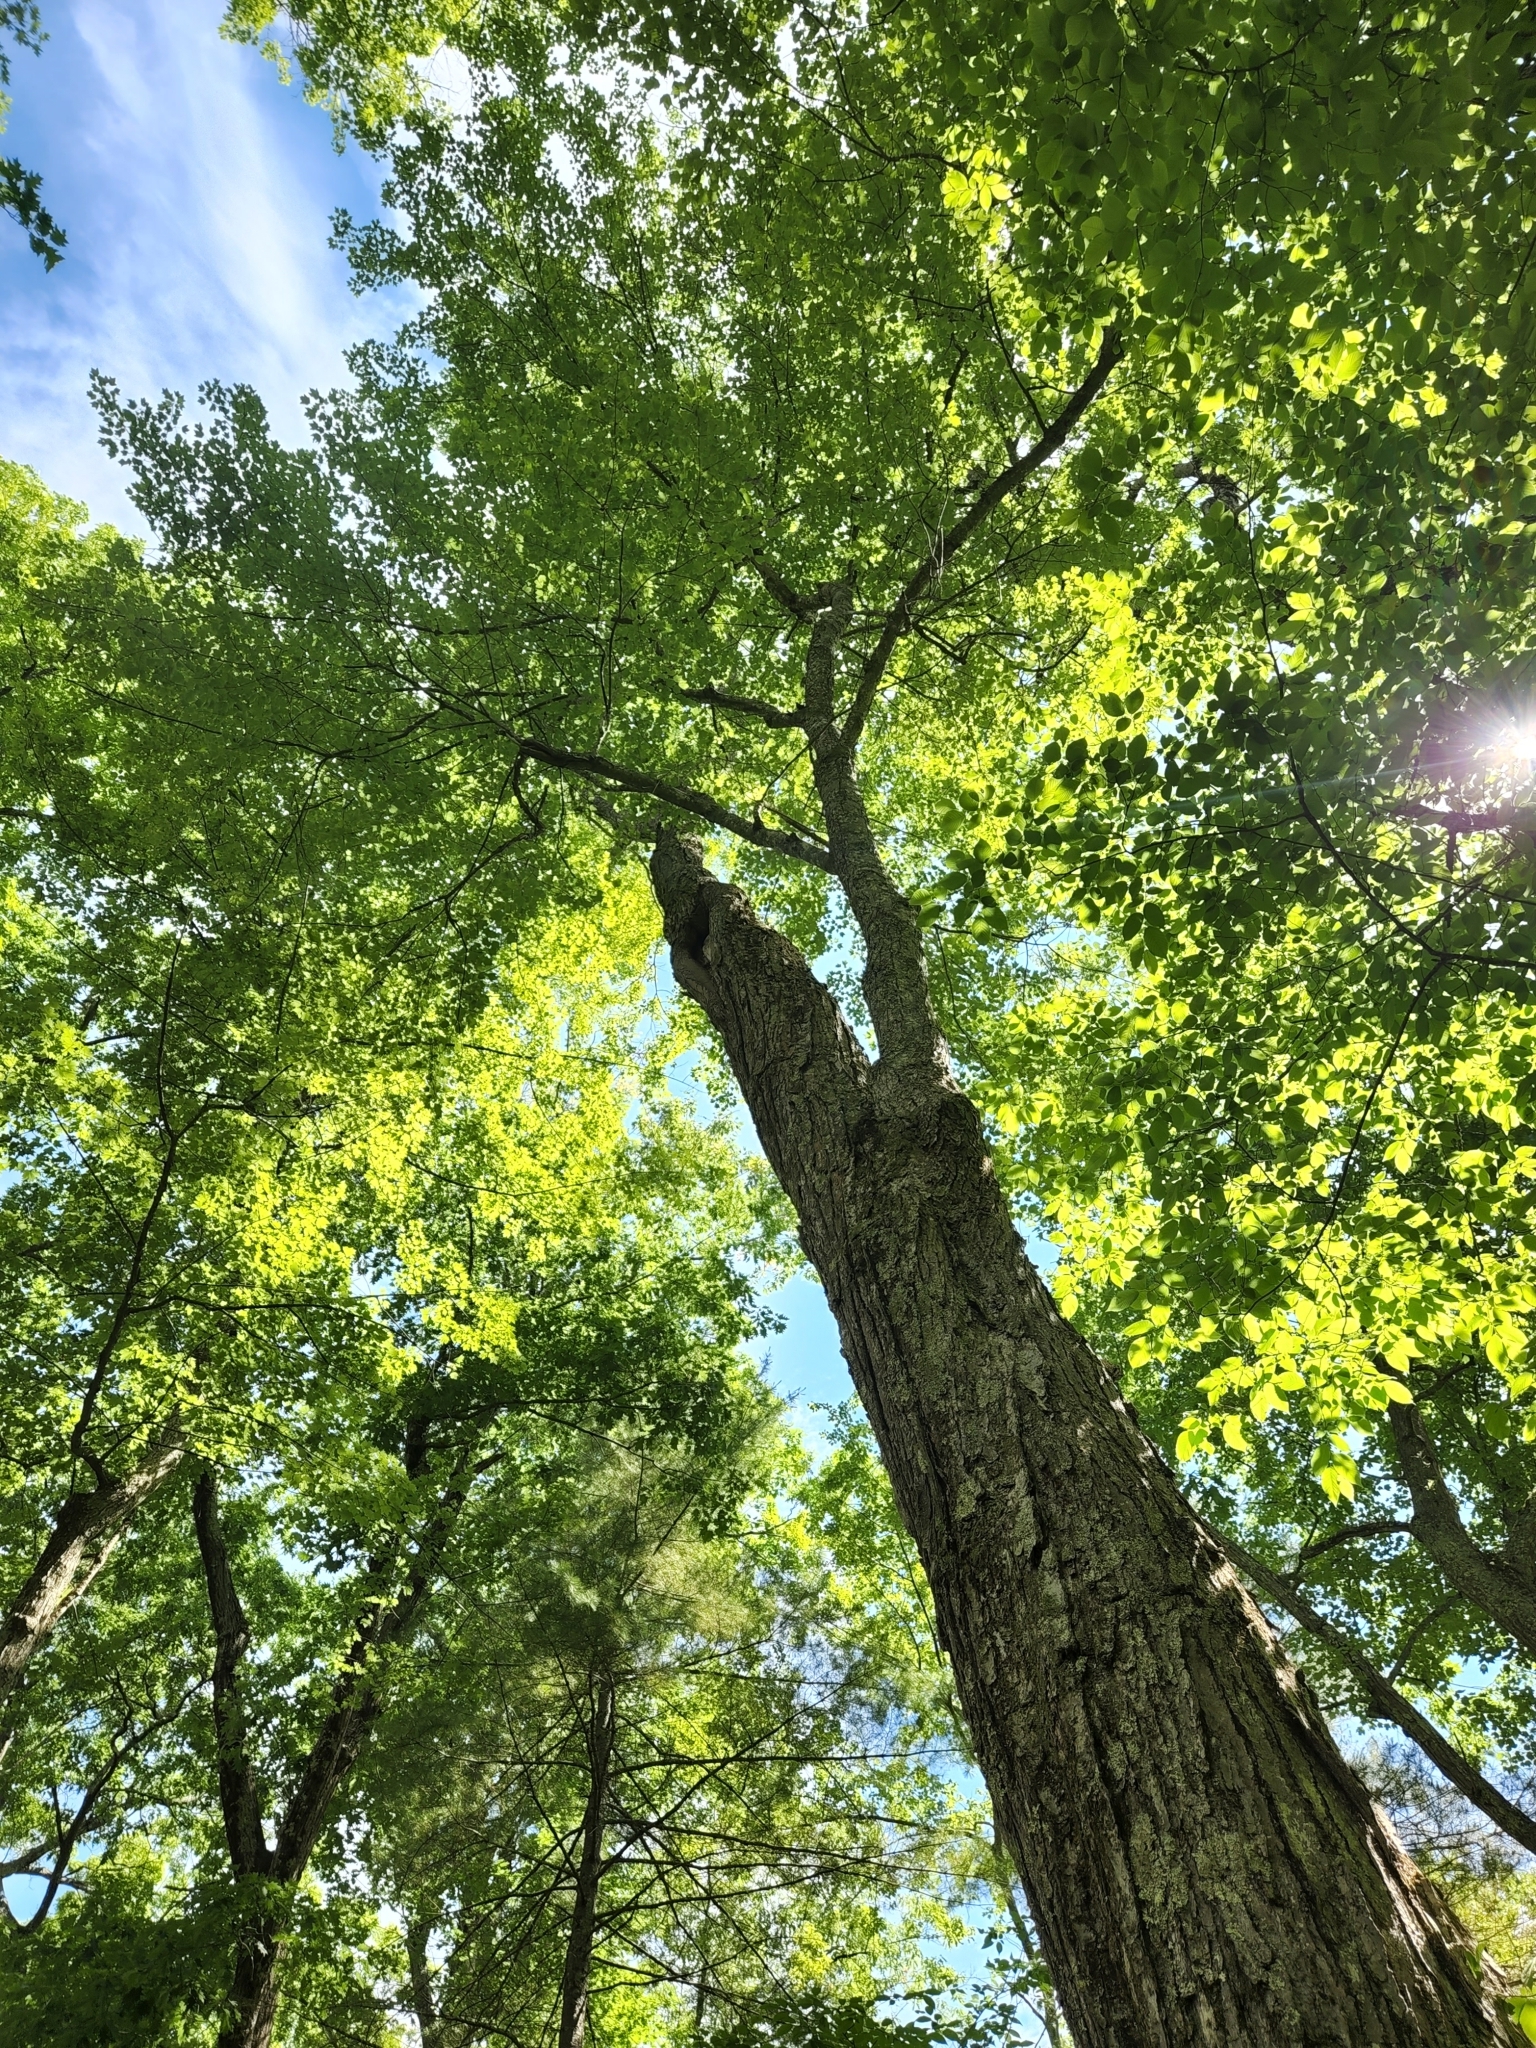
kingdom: Plantae
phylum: Tracheophyta
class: Magnoliopsida
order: Sapindales
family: Sapindaceae
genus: Acer
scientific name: Acer rubrum
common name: Red maple
